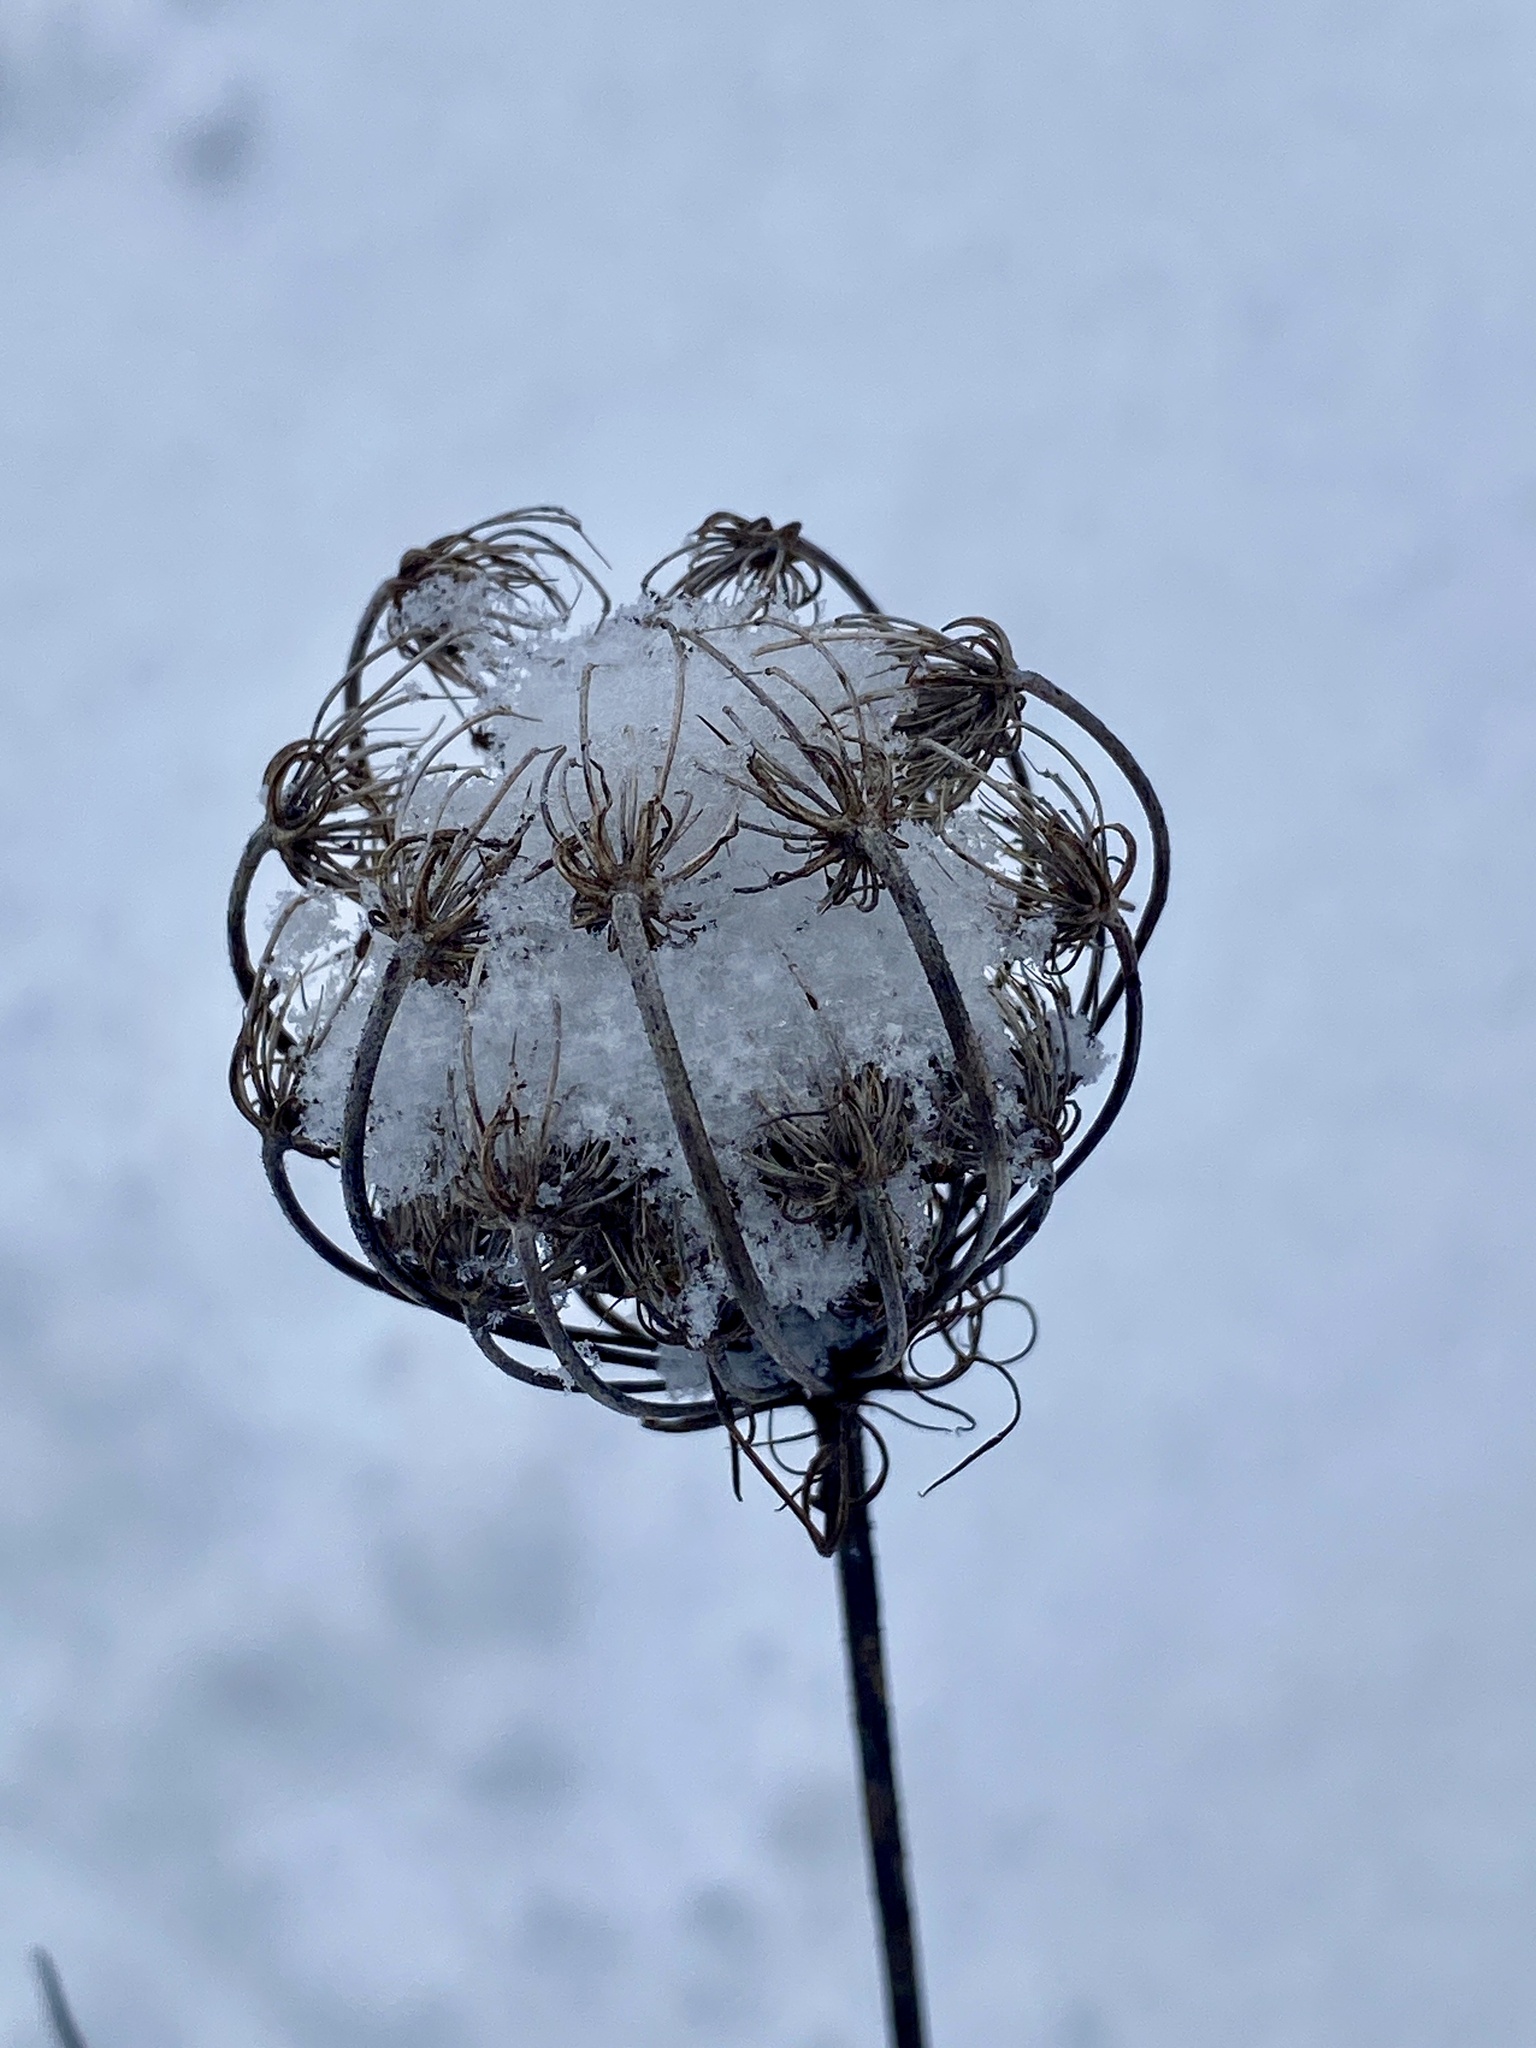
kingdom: Plantae
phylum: Tracheophyta
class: Magnoliopsida
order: Apiales
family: Apiaceae
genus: Daucus
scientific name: Daucus carota
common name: Wild carrot
